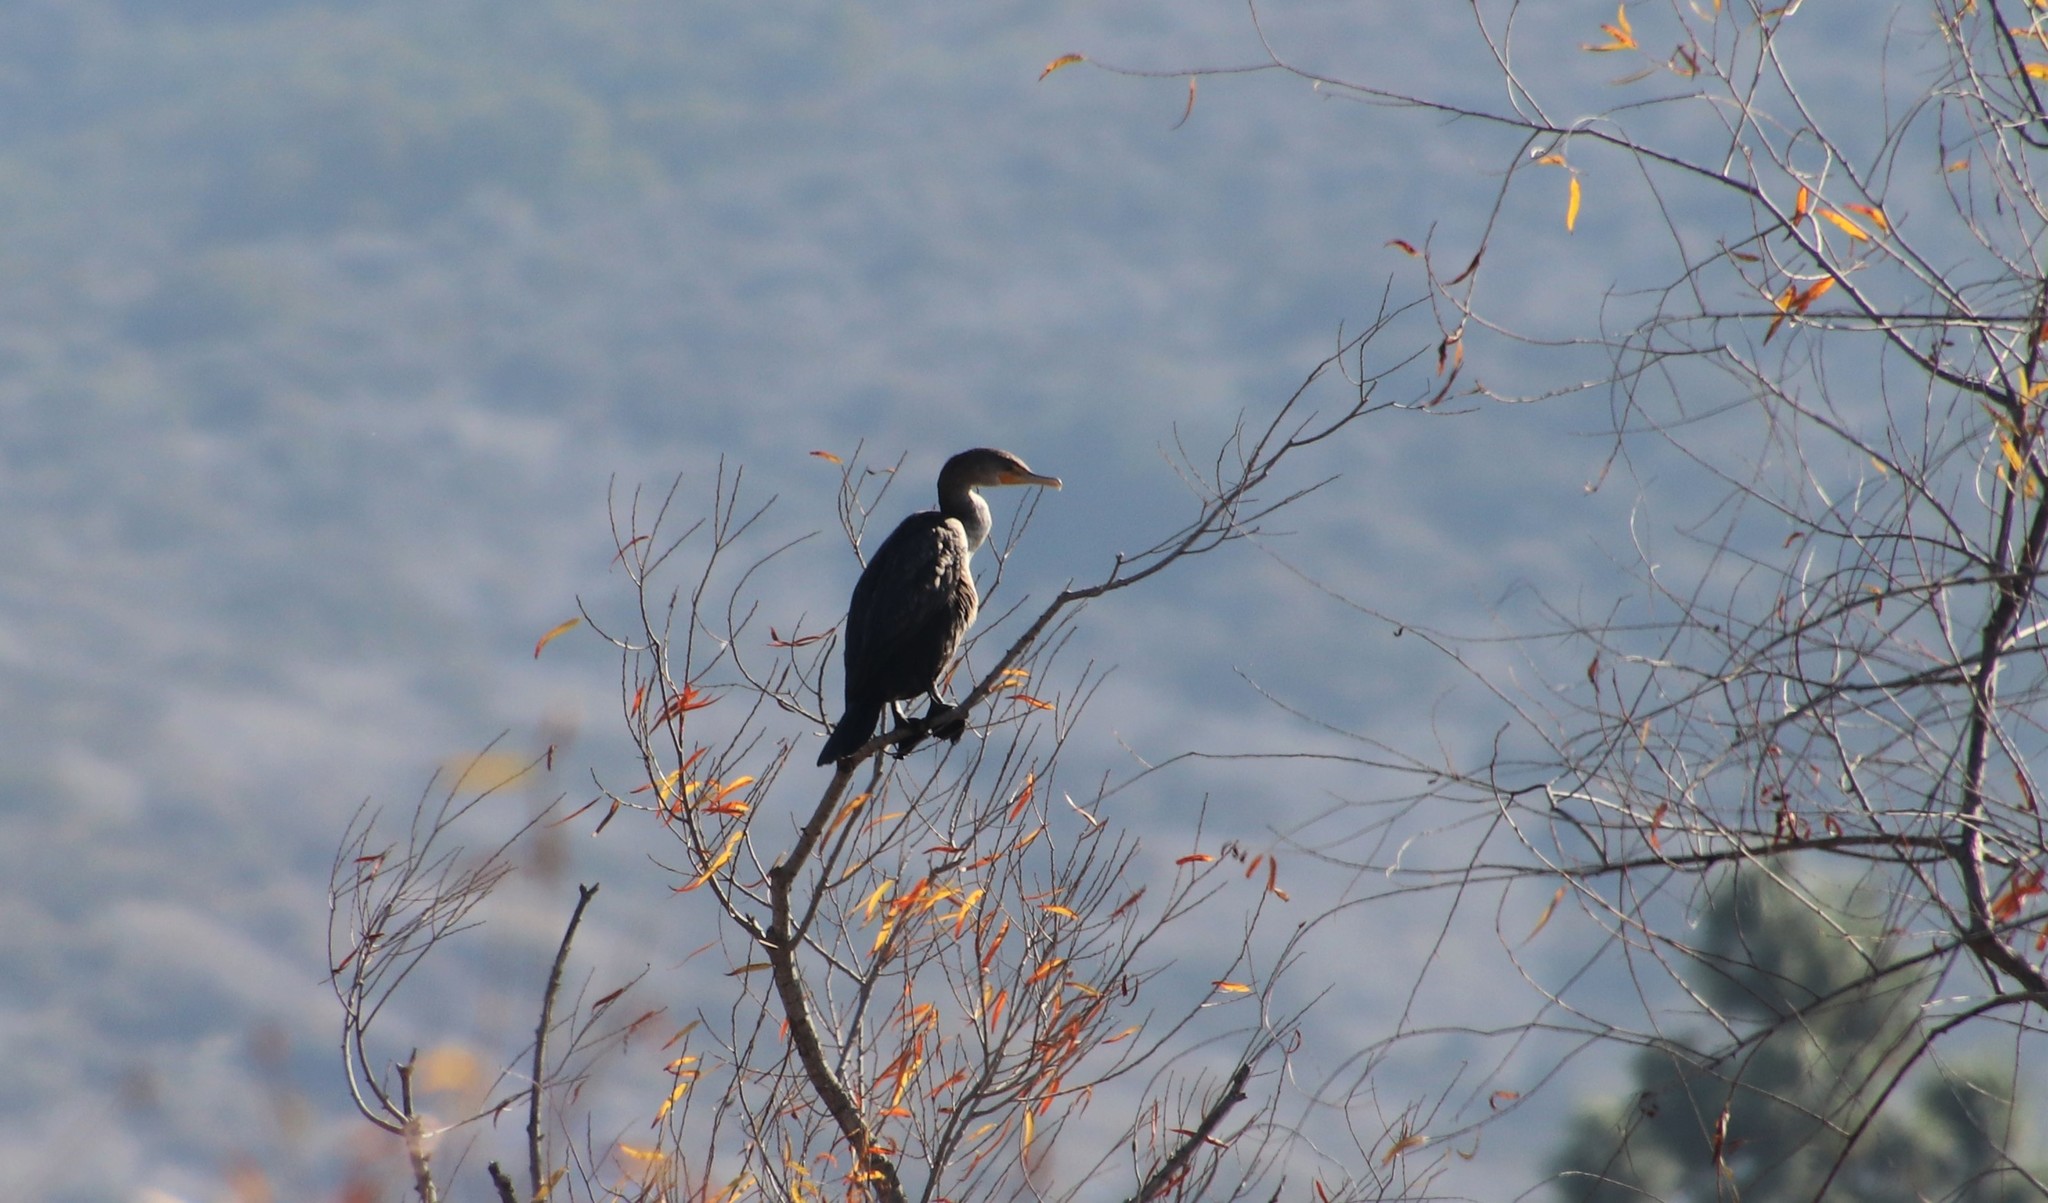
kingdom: Animalia
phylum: Chordata
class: Aves
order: Suliformes
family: Phalacrocoracidae
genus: Phalacrocorax
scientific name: Phalacrocorax auritus
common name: Double-crested cormorant
